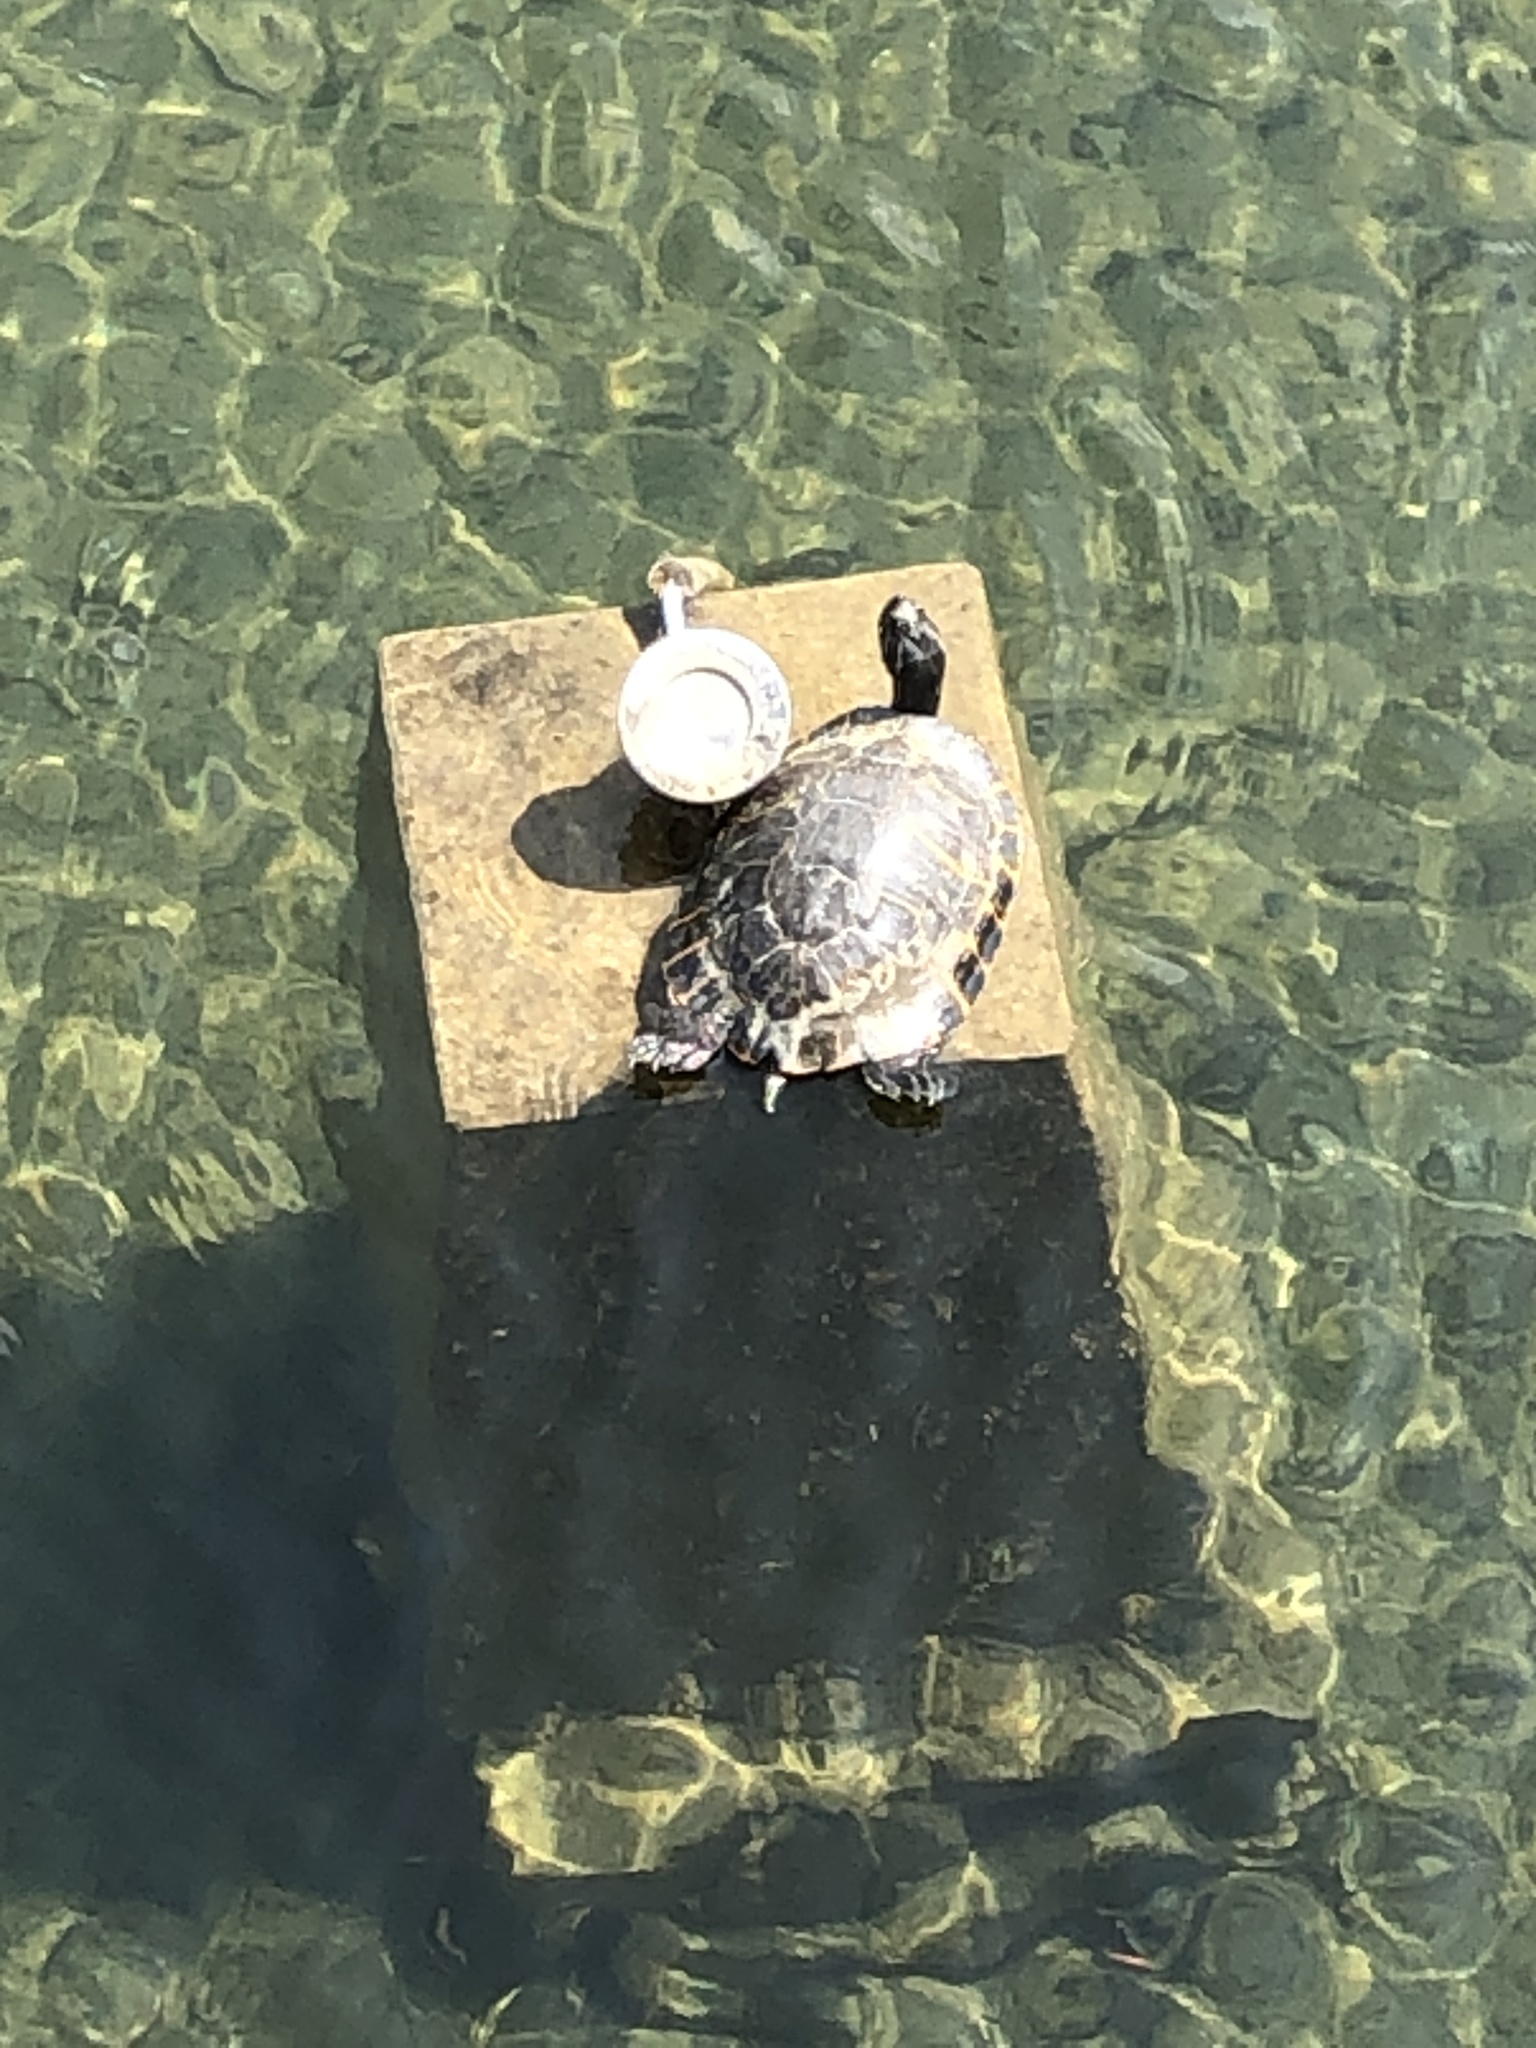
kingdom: Animalia
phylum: Chordata
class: Testudines
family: Emydidae
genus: Pseudemys
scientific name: Pseudemys concinna
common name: Eastern river cooter
